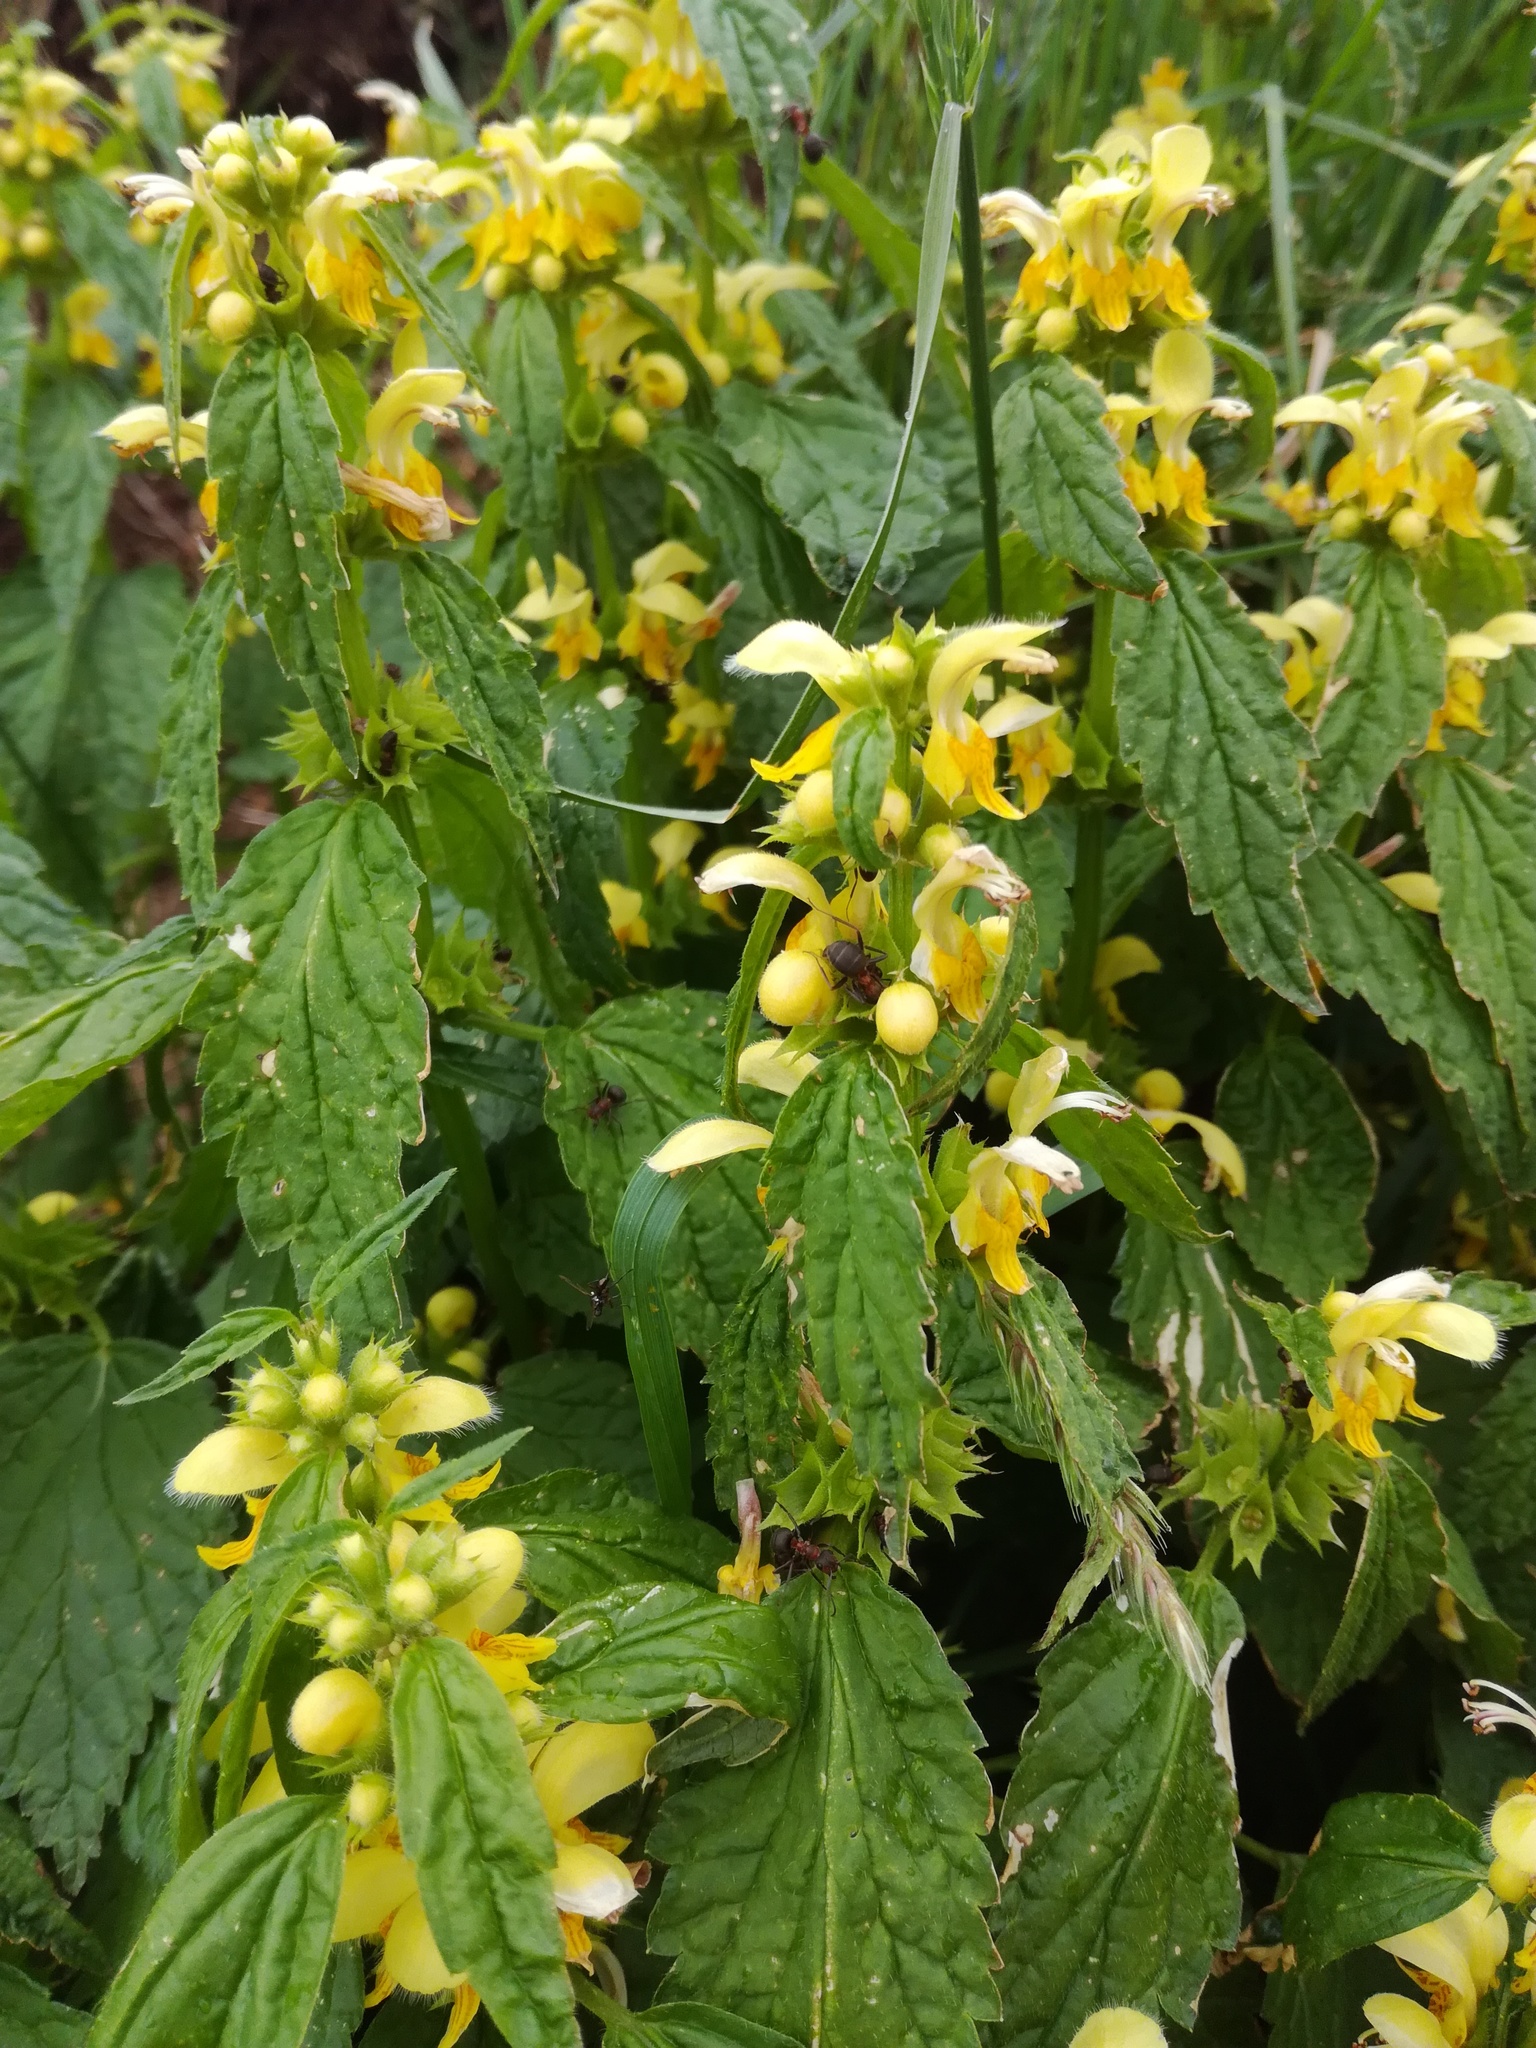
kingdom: Plantae
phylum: Tracheophyta
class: Magnoliopsida
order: Lamiales
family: Lamiaceae
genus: Lamium
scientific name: Lamium galeobdolon
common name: Yellow archangel
